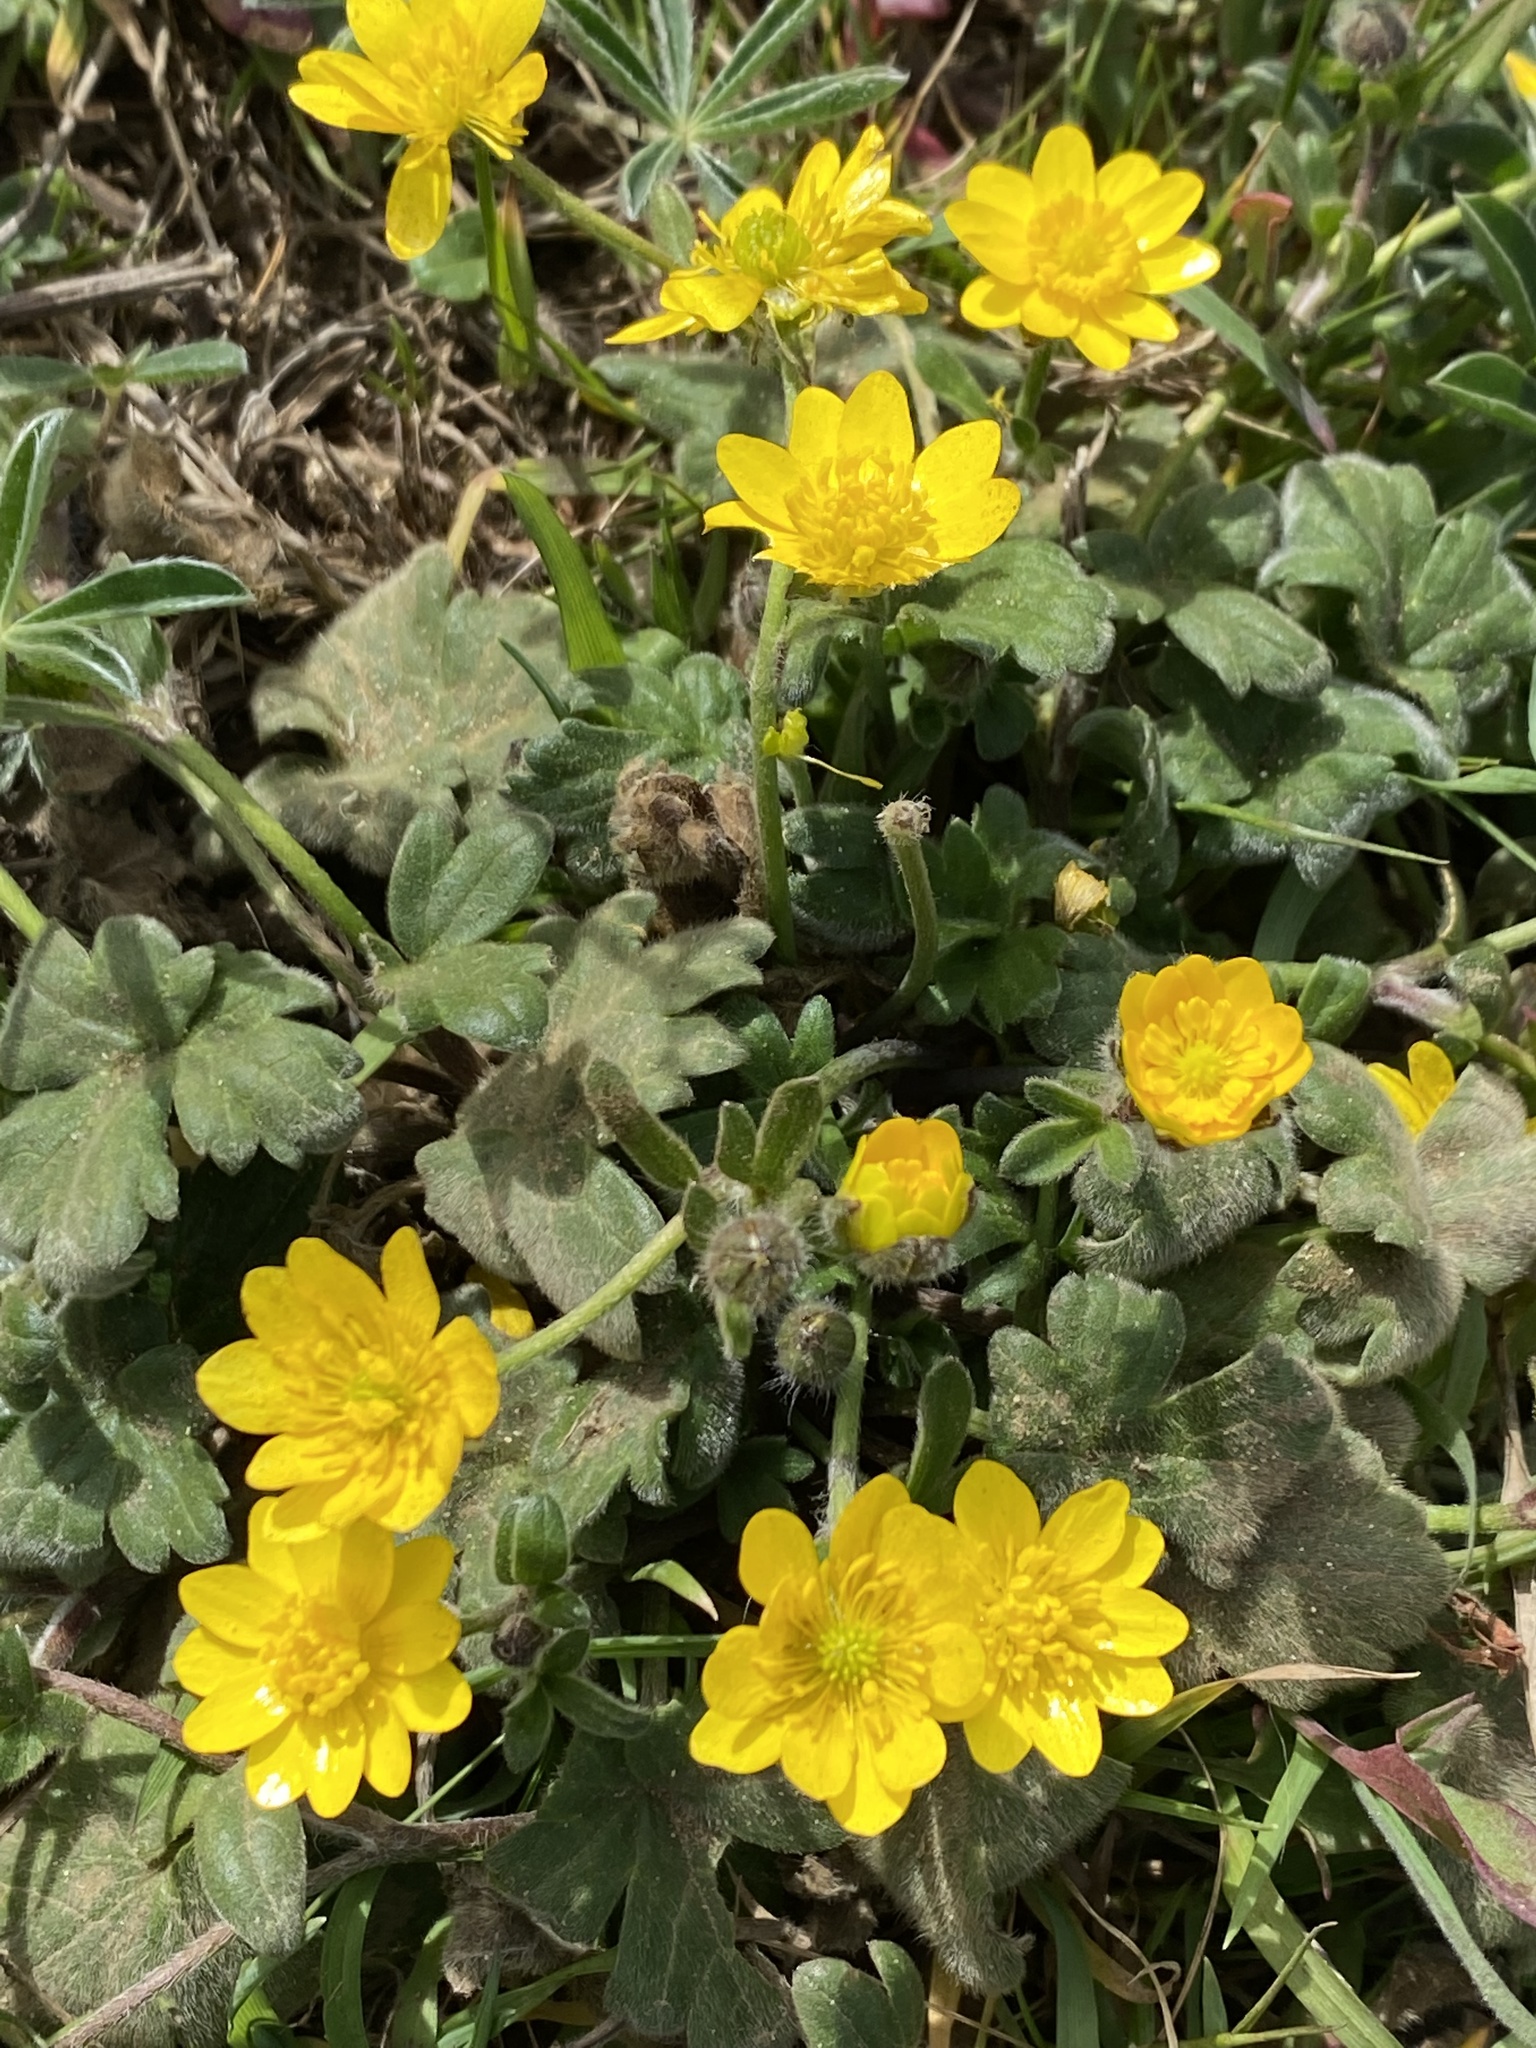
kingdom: Plantae
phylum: Tracheophyta
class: Magnoliopsida
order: Ranunculales
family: Ranunculaceae
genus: Ranunculus
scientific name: Ranunculus californicus
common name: California buttercup
